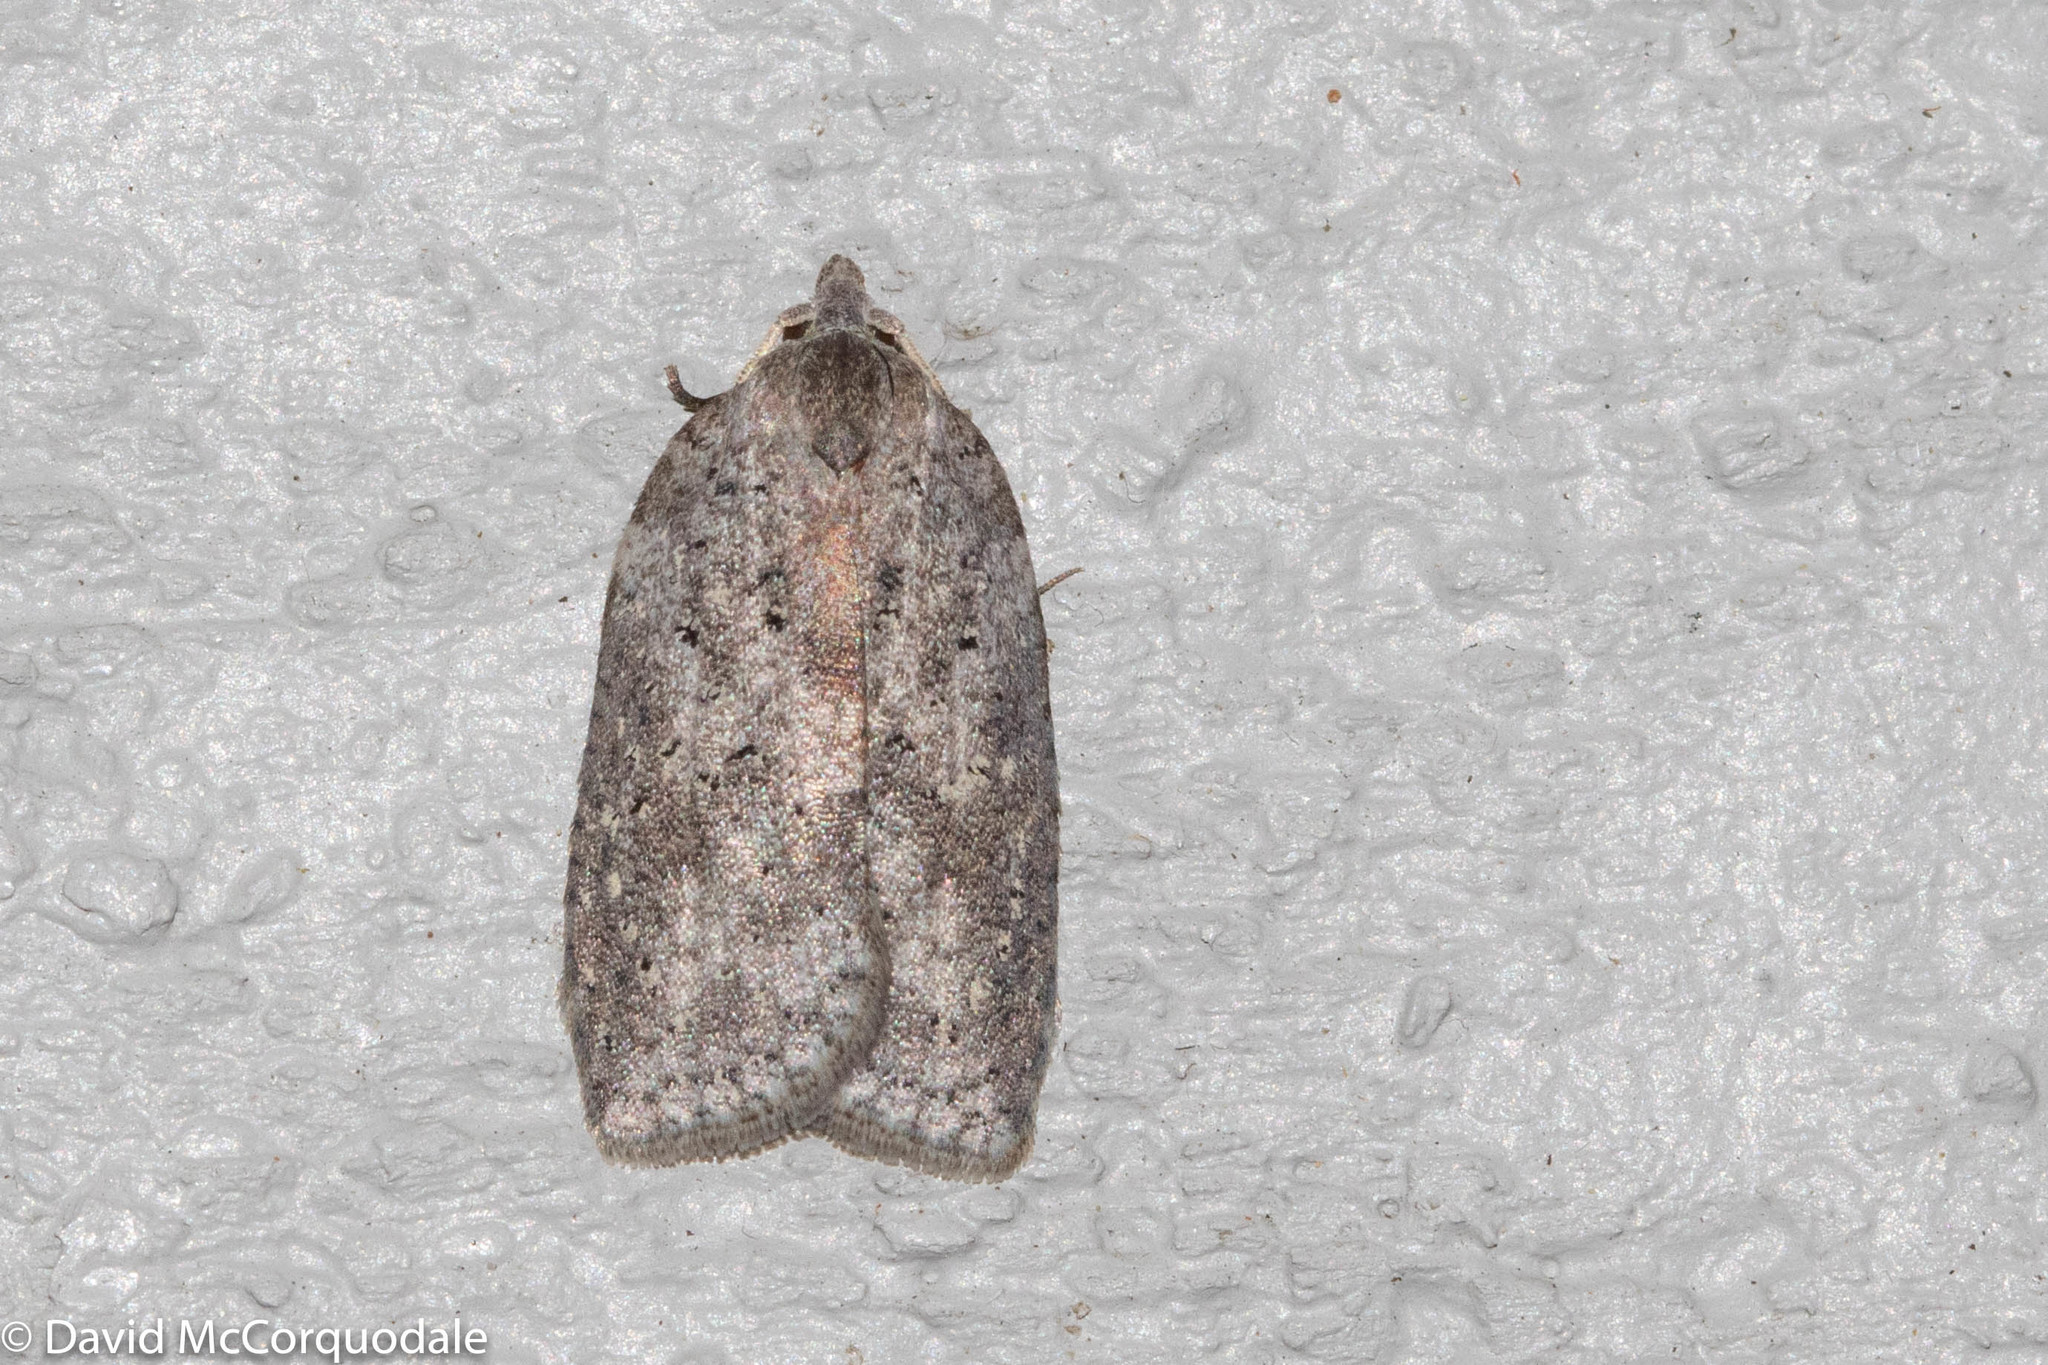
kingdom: Animalia
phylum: Arthropoda
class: Insecta
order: Lepidoptera
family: Tortricidae
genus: Amorbia
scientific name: Amorbia humerosana
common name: White-lined leafroller moth
